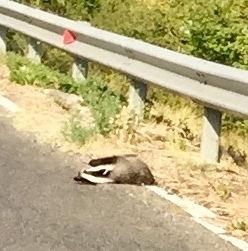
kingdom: Animalia
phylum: Chordata
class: Mammalia
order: Carnivora
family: Mustelidae
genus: Meles
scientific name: Meles meles
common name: Eurasian badger
